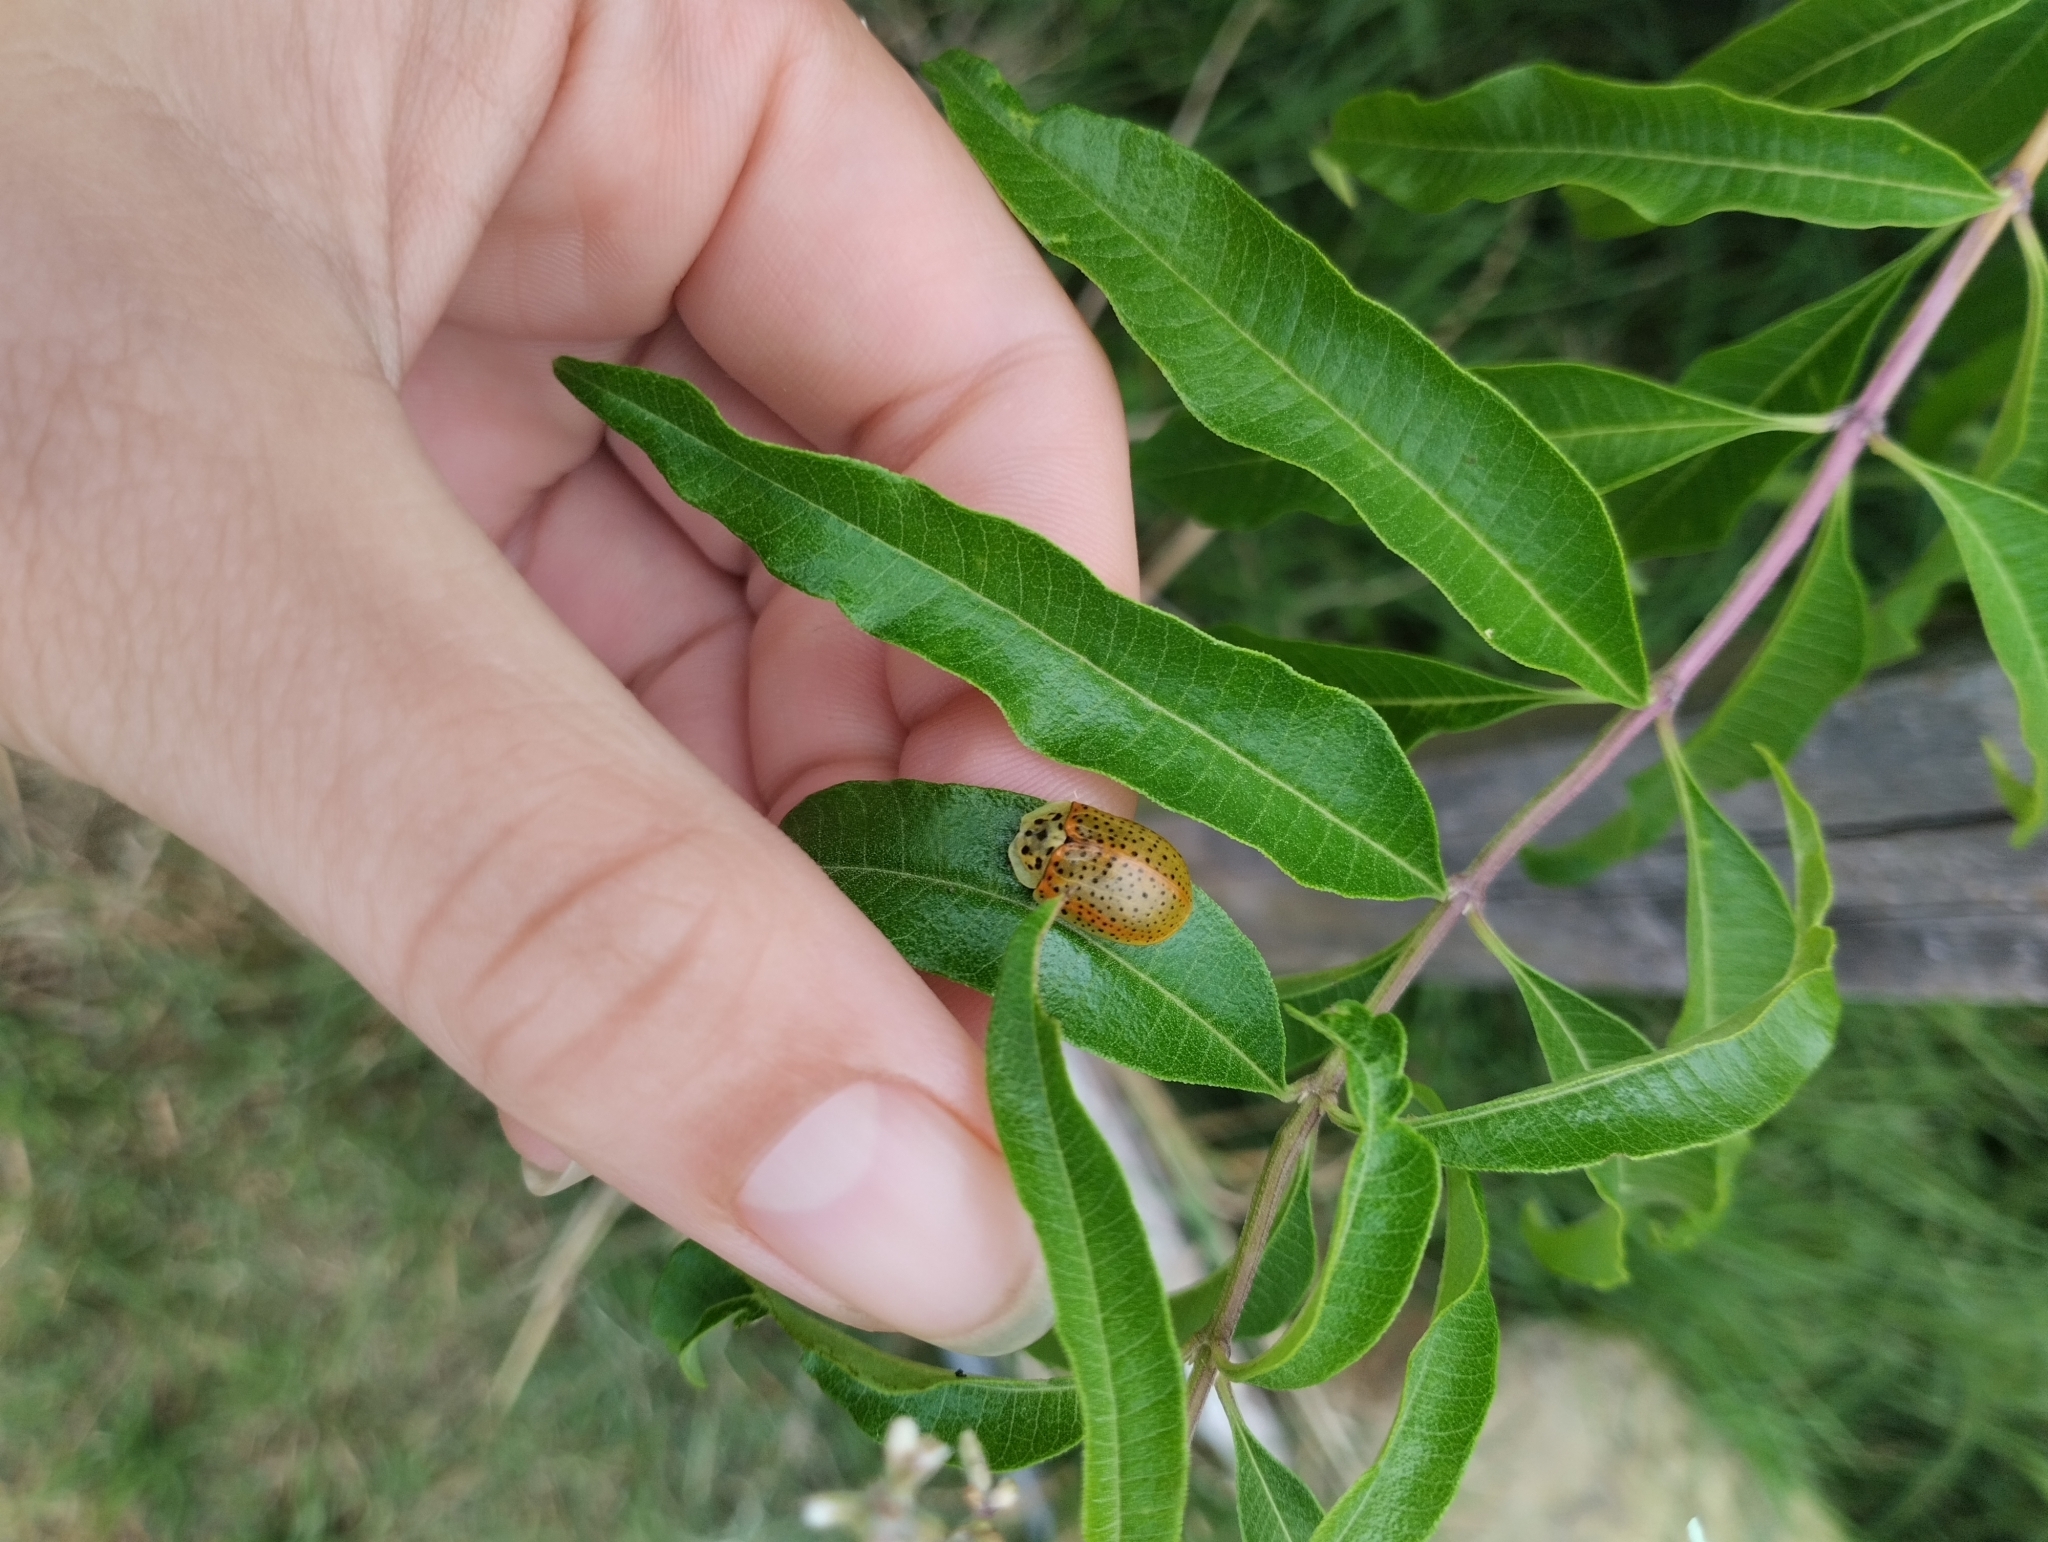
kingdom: Animalia
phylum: Arthropoda
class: Insecta
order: Coleoptera
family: Chrysomelidae
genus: Anacassis
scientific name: Anacassis cribrum
